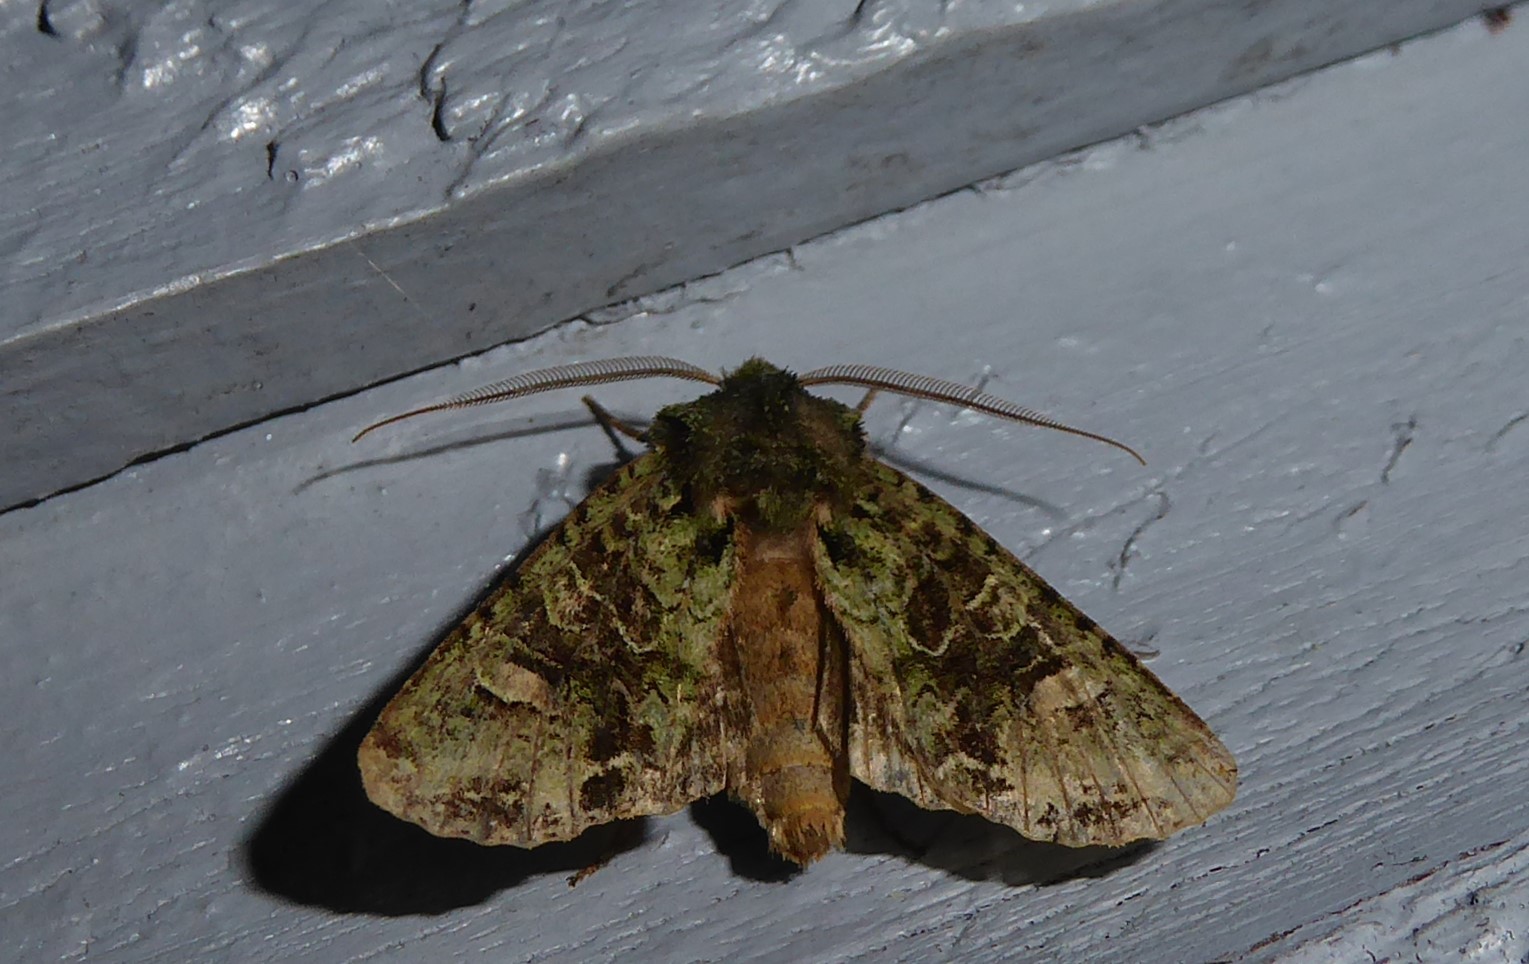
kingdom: Animalia
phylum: Arthropoda
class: Insecta
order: Lepidoptera
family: Noctuidae
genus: Ichneutica
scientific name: Ichneutica
